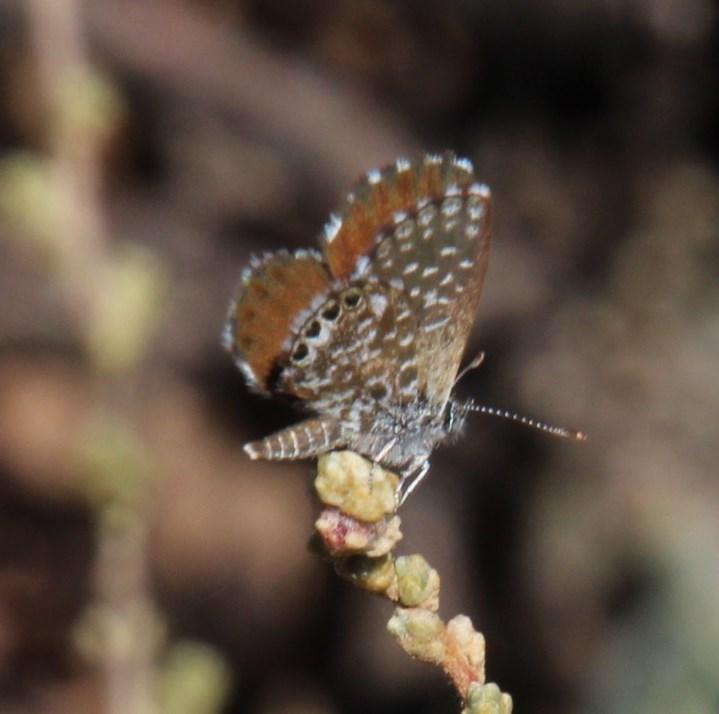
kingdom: Animalia
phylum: Arthropoda
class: Insecta
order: Lepidoptera
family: Lycaenidae
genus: Cacyreus
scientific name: Cacyreus fracta
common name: Water bronze
